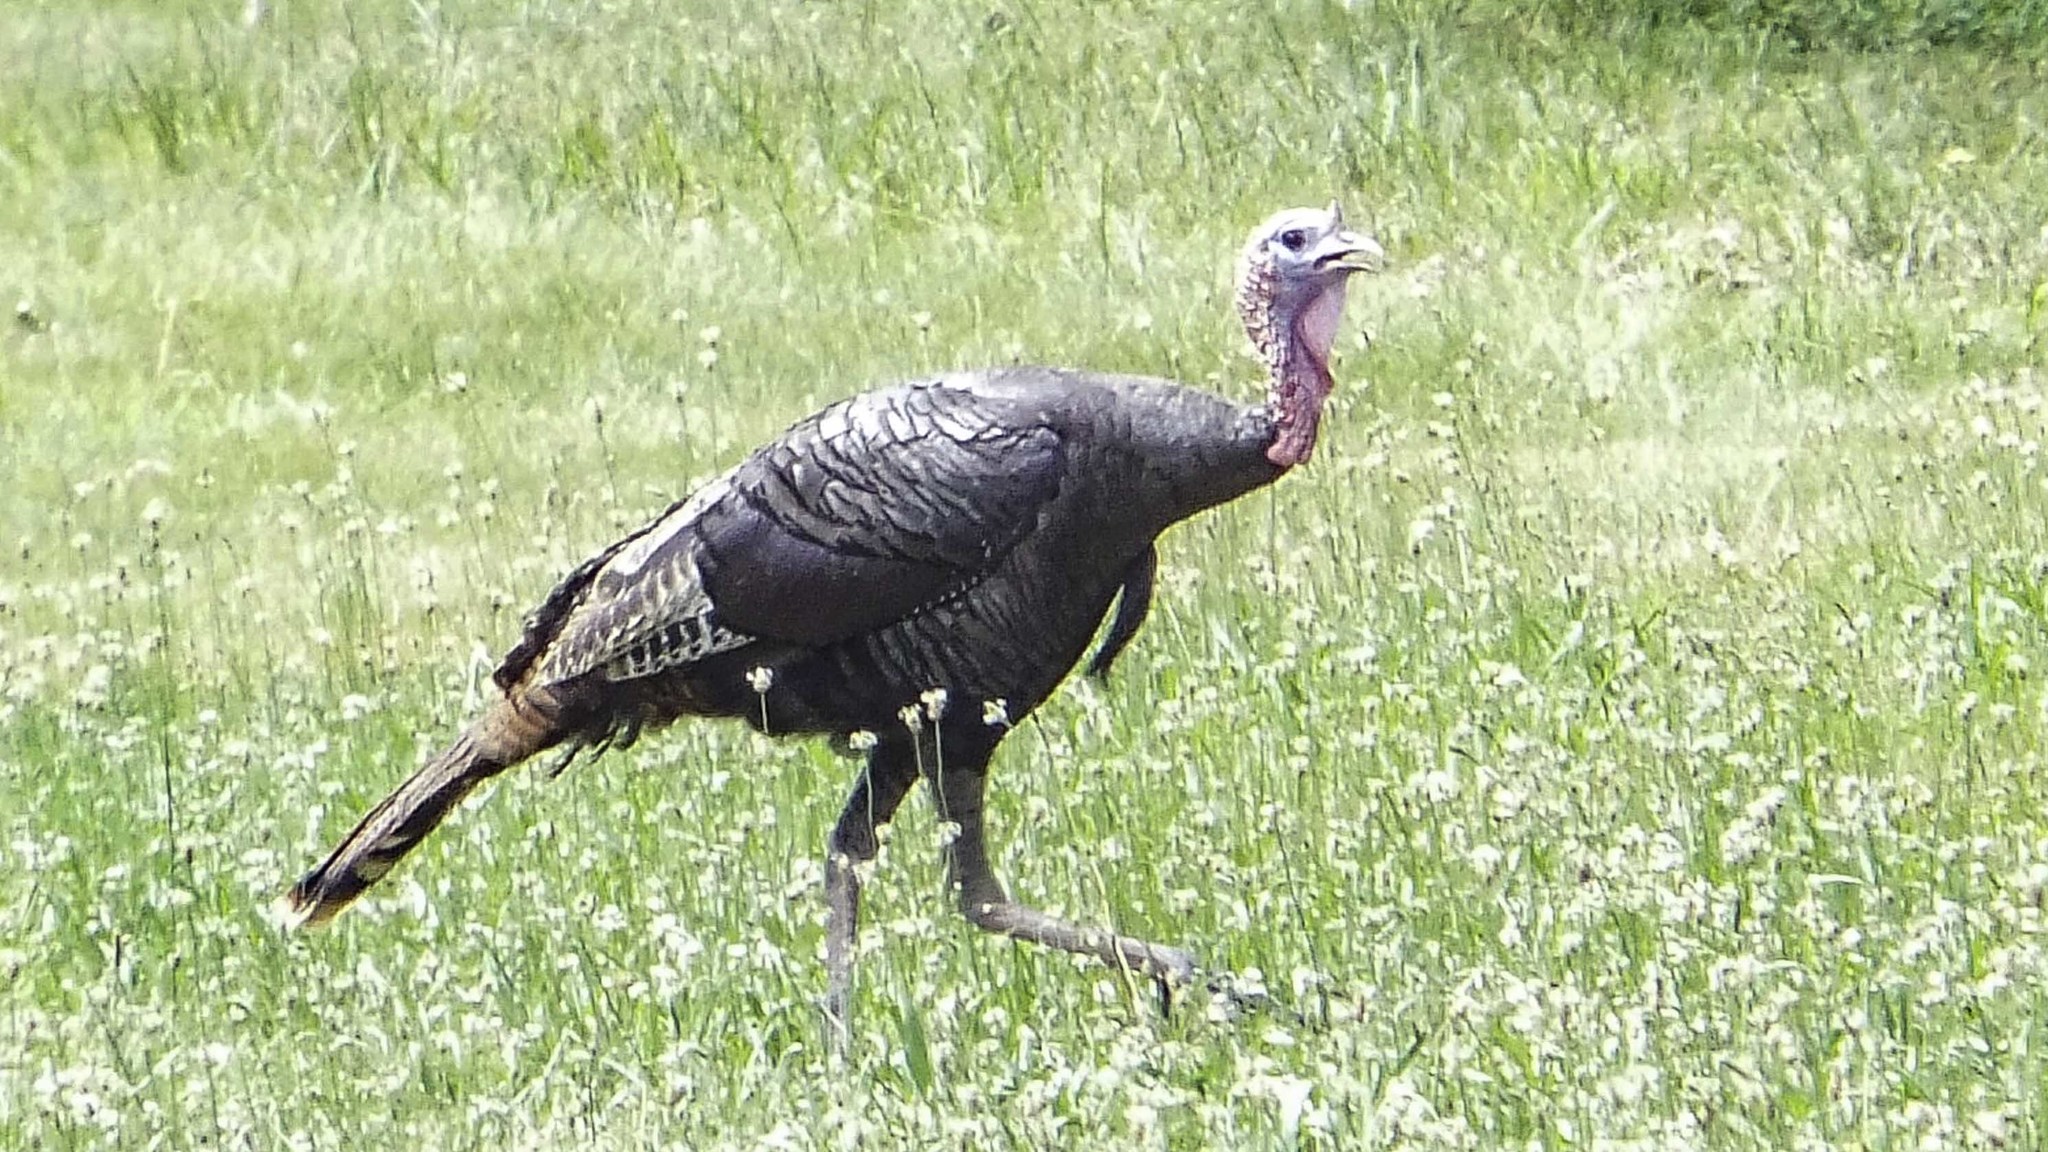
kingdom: Animalia
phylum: Chordata
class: Aves
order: Galliformes
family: Phasianidae
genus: Meleagris
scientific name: Meleagris gallopavo
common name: Wild turkey
